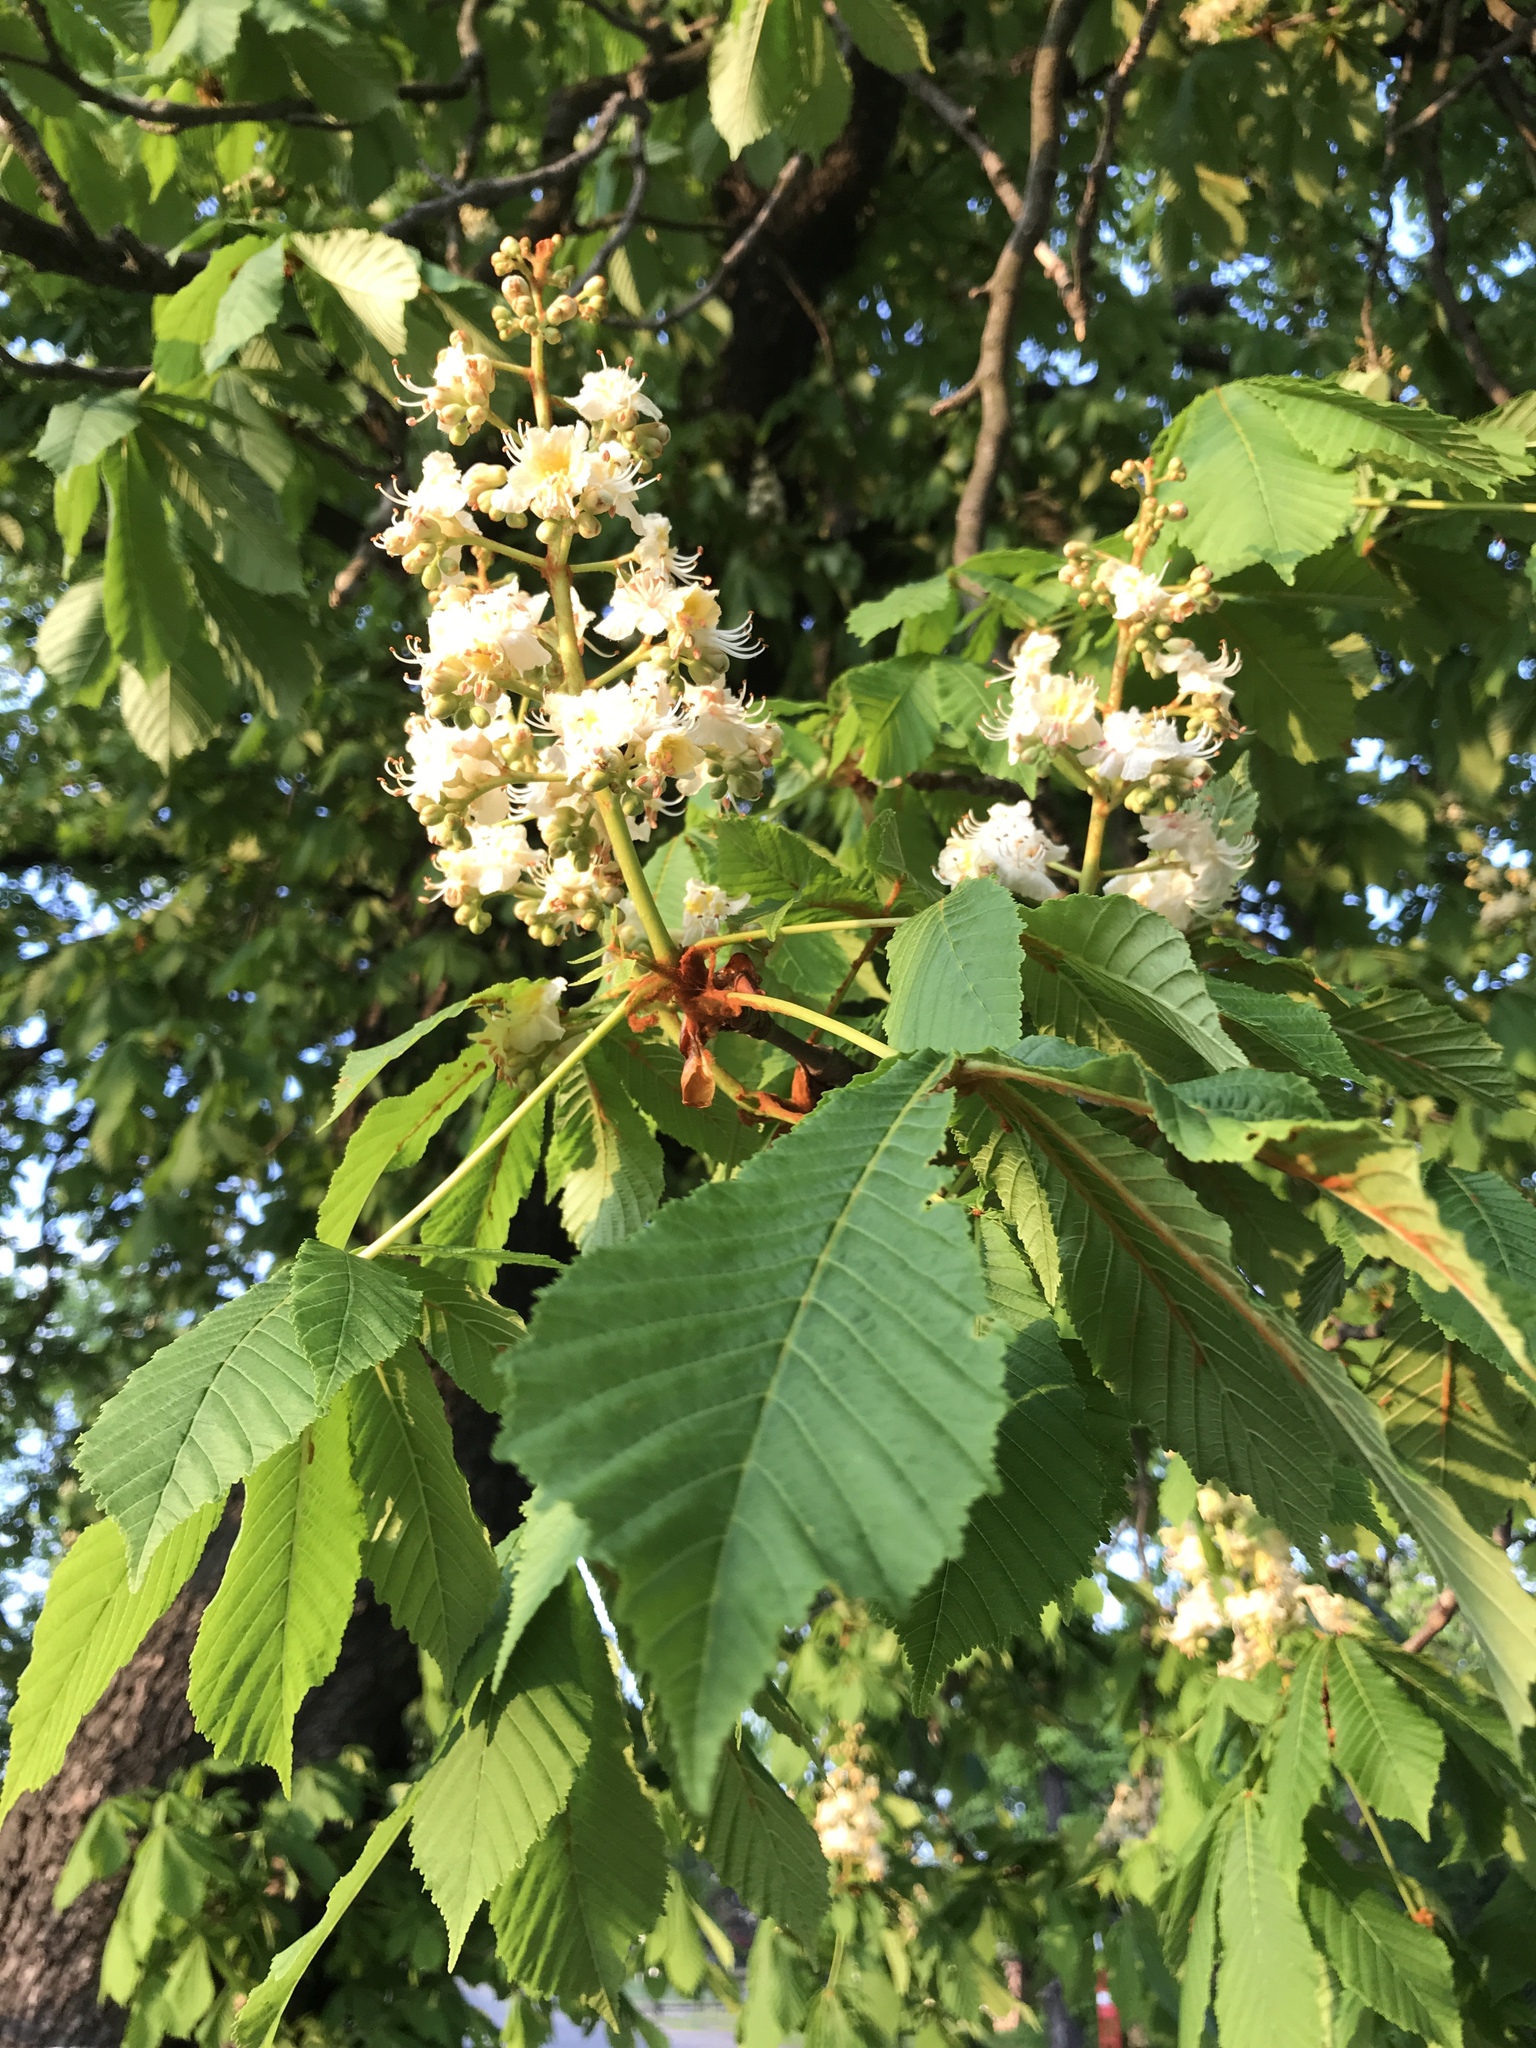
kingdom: Plantae
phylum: Tracheophyta
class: Magnoliopsida
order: Sapindales
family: Sapindaceae
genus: Aesculus
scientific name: Aesculus hippocastanum
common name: Horse-chestnut
